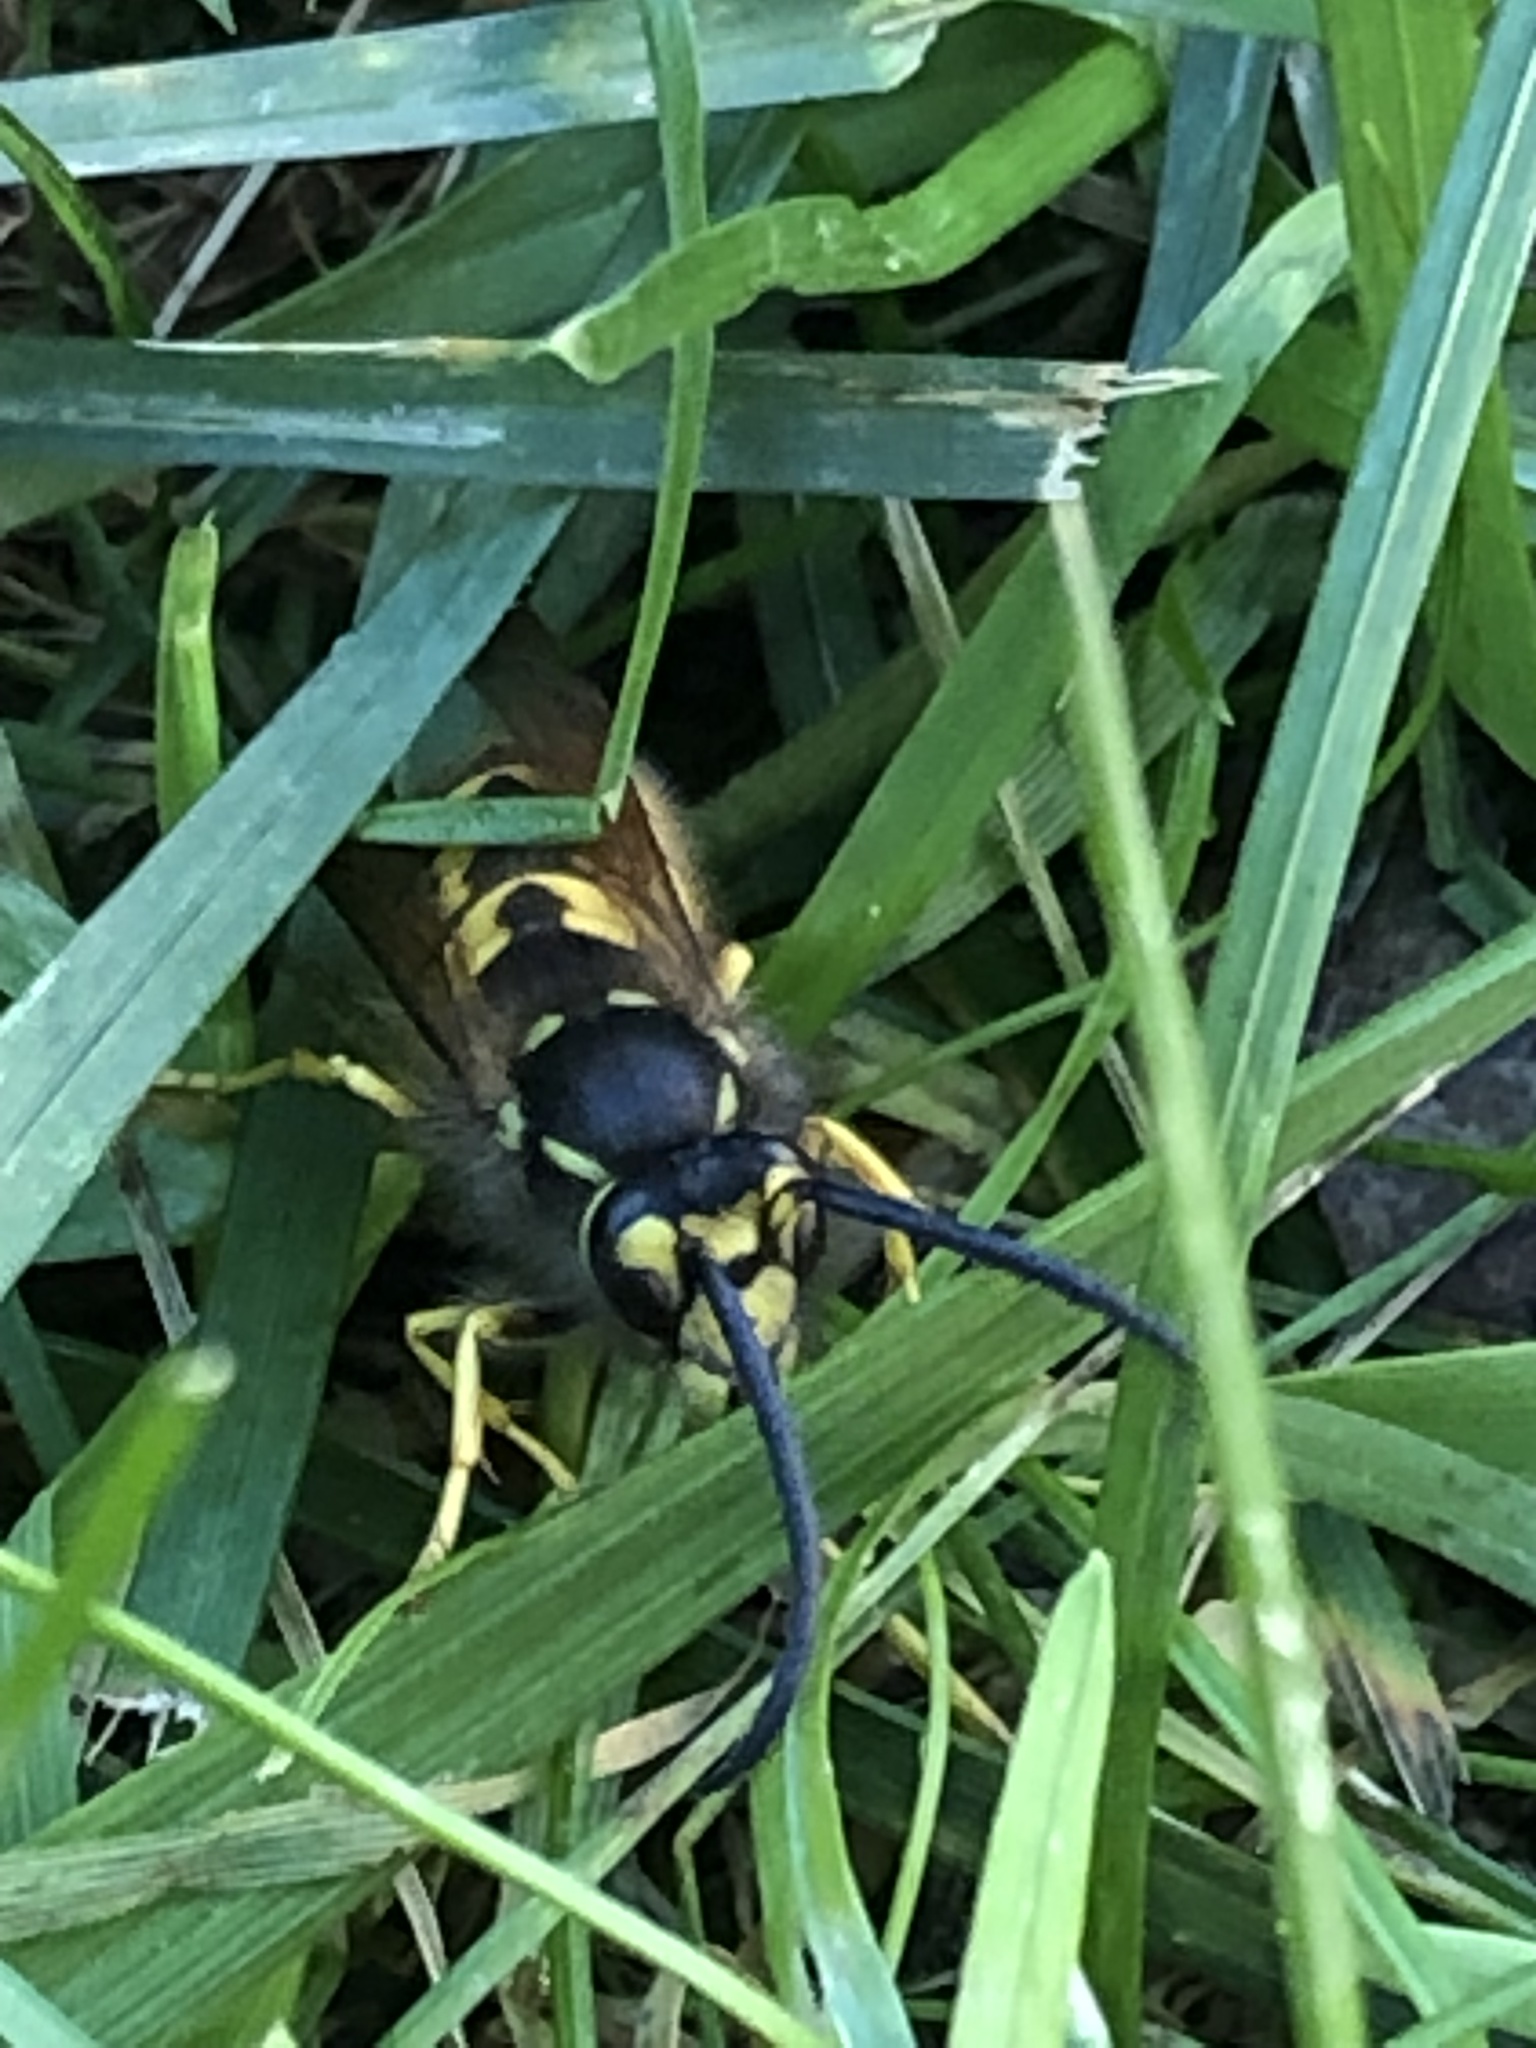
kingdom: Animalia
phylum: Arthropoda
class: Insecta
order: Hymenoptera
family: Vespidae
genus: Vespula
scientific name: Vespula germanica
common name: German wasp
